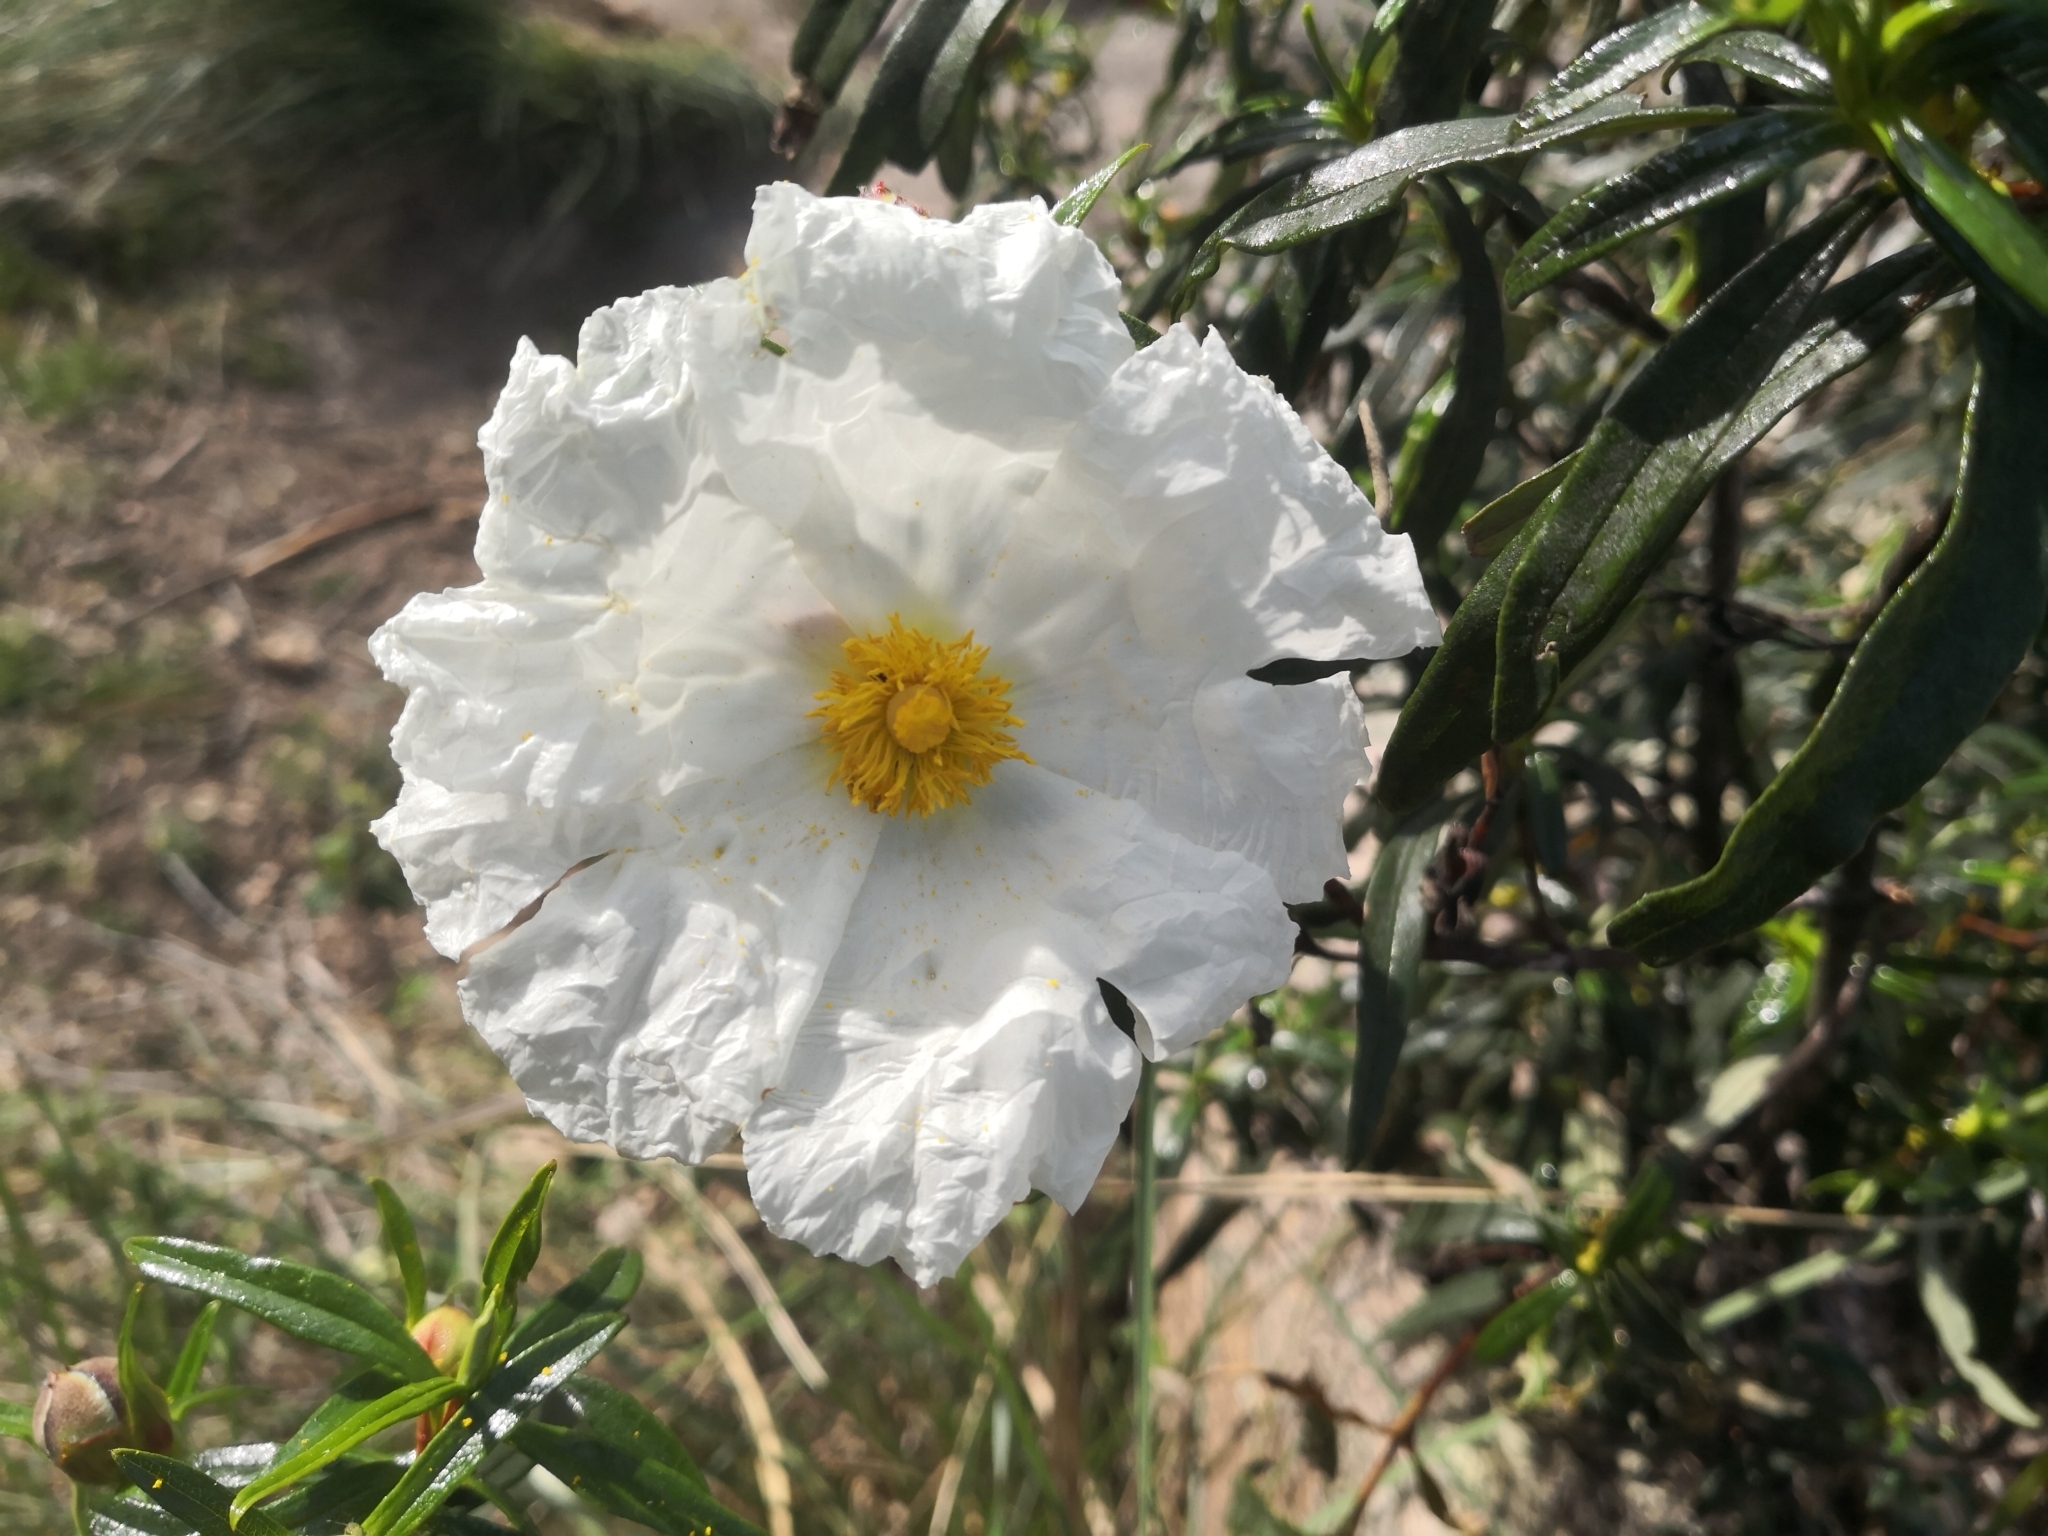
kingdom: Plantae
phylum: Tracheophyta
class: Magnoliopsida
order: Malvales
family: Cistaceae
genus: Cistus
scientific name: Cistus ladanifer
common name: Common gum cistus
